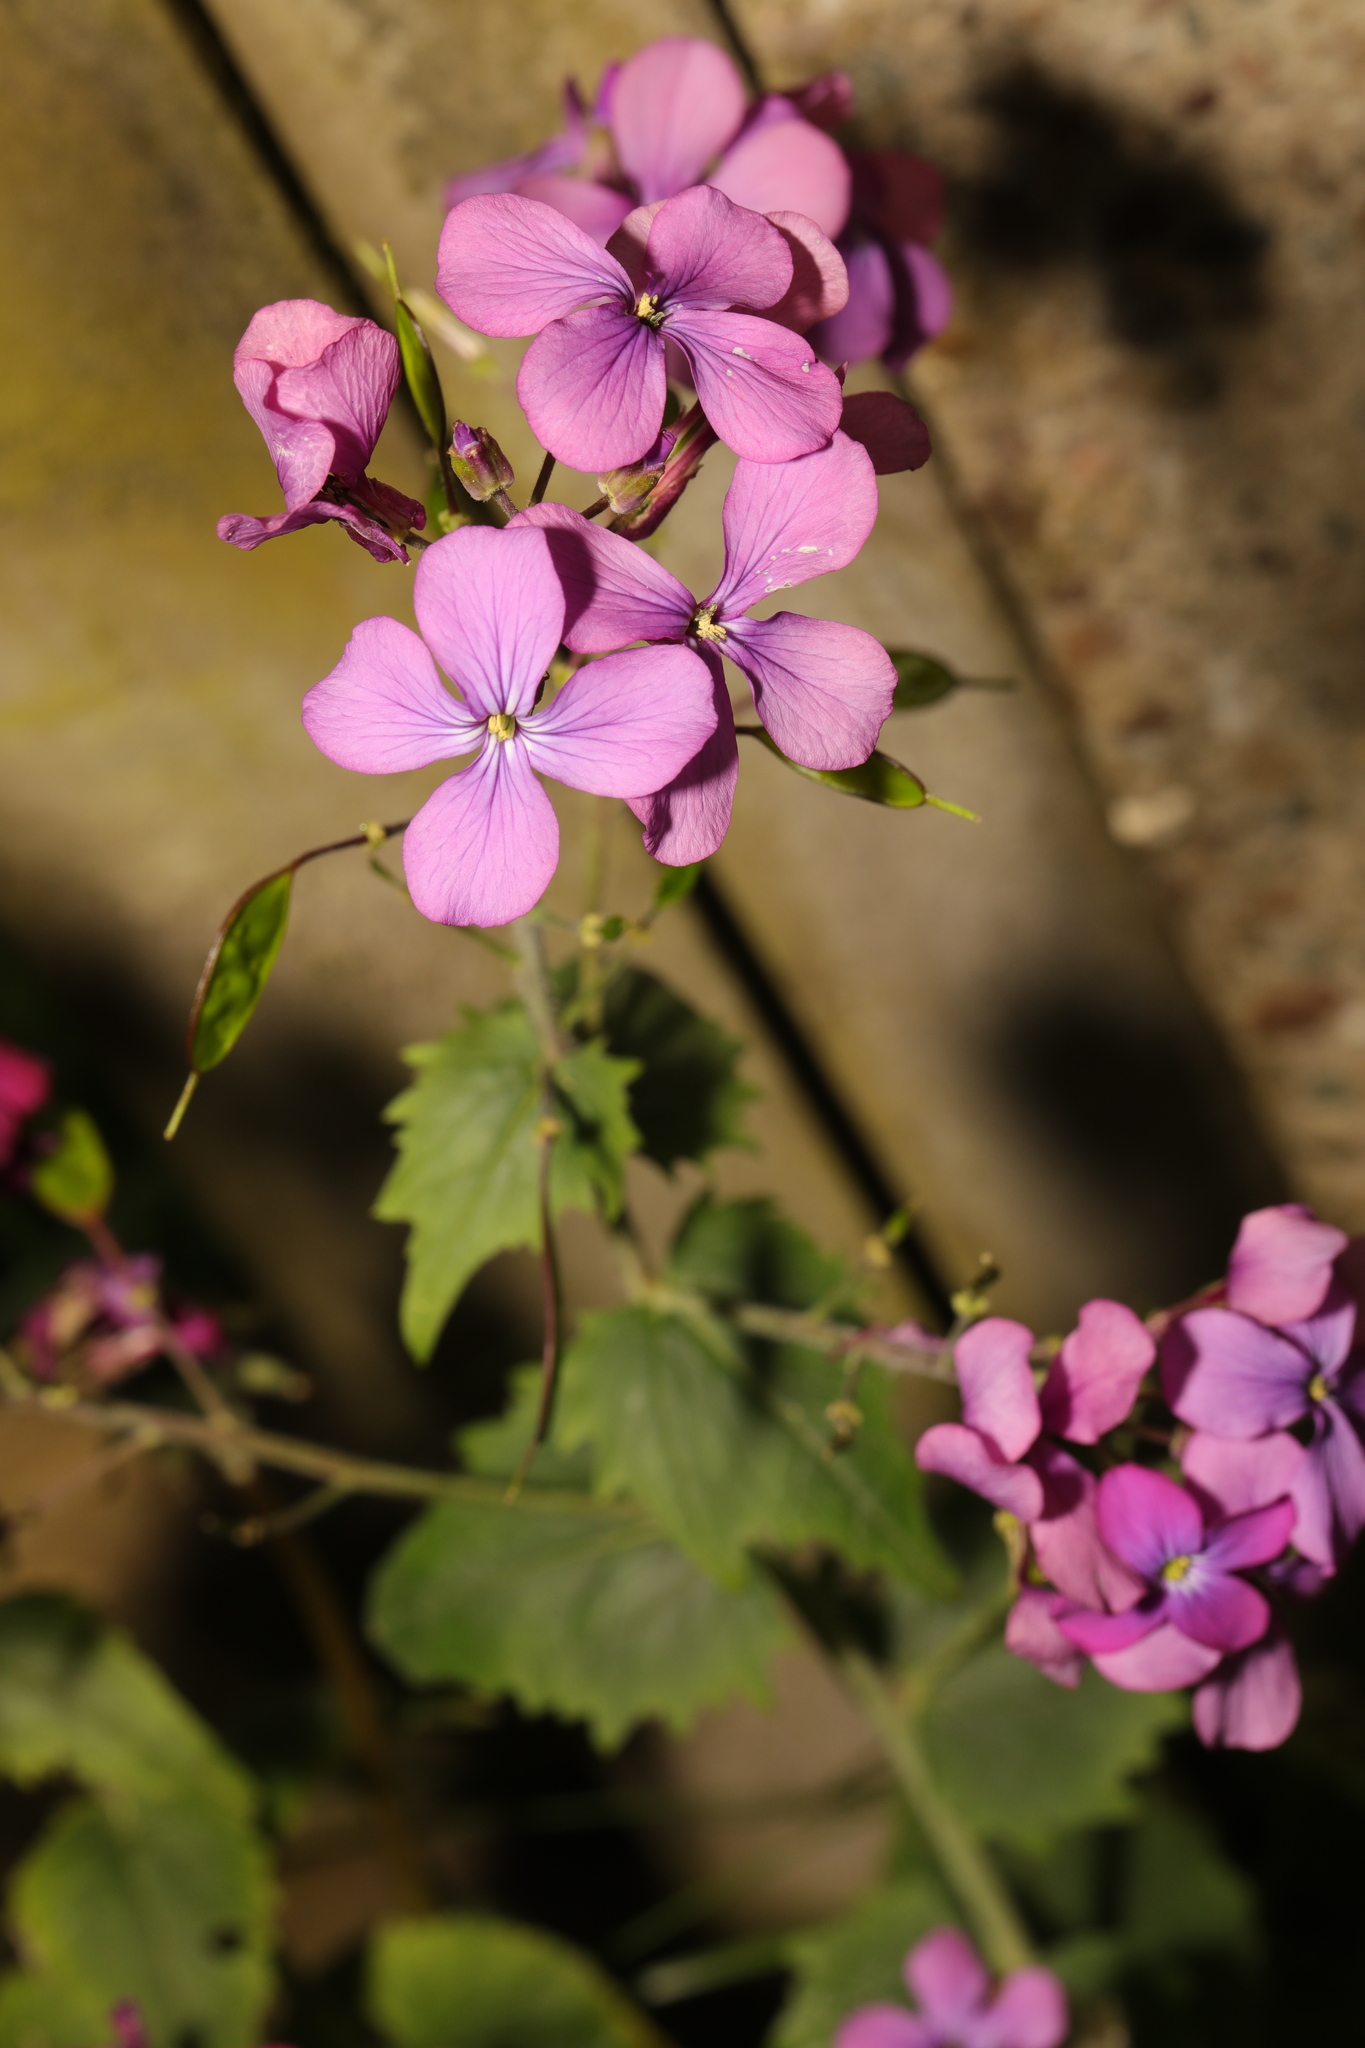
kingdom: Plantae
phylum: Tracheophyta
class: Magnoliopsida
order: Brassicales
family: Brassicaceae
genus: Lunaria
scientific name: Lunaria annua
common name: Honesty
